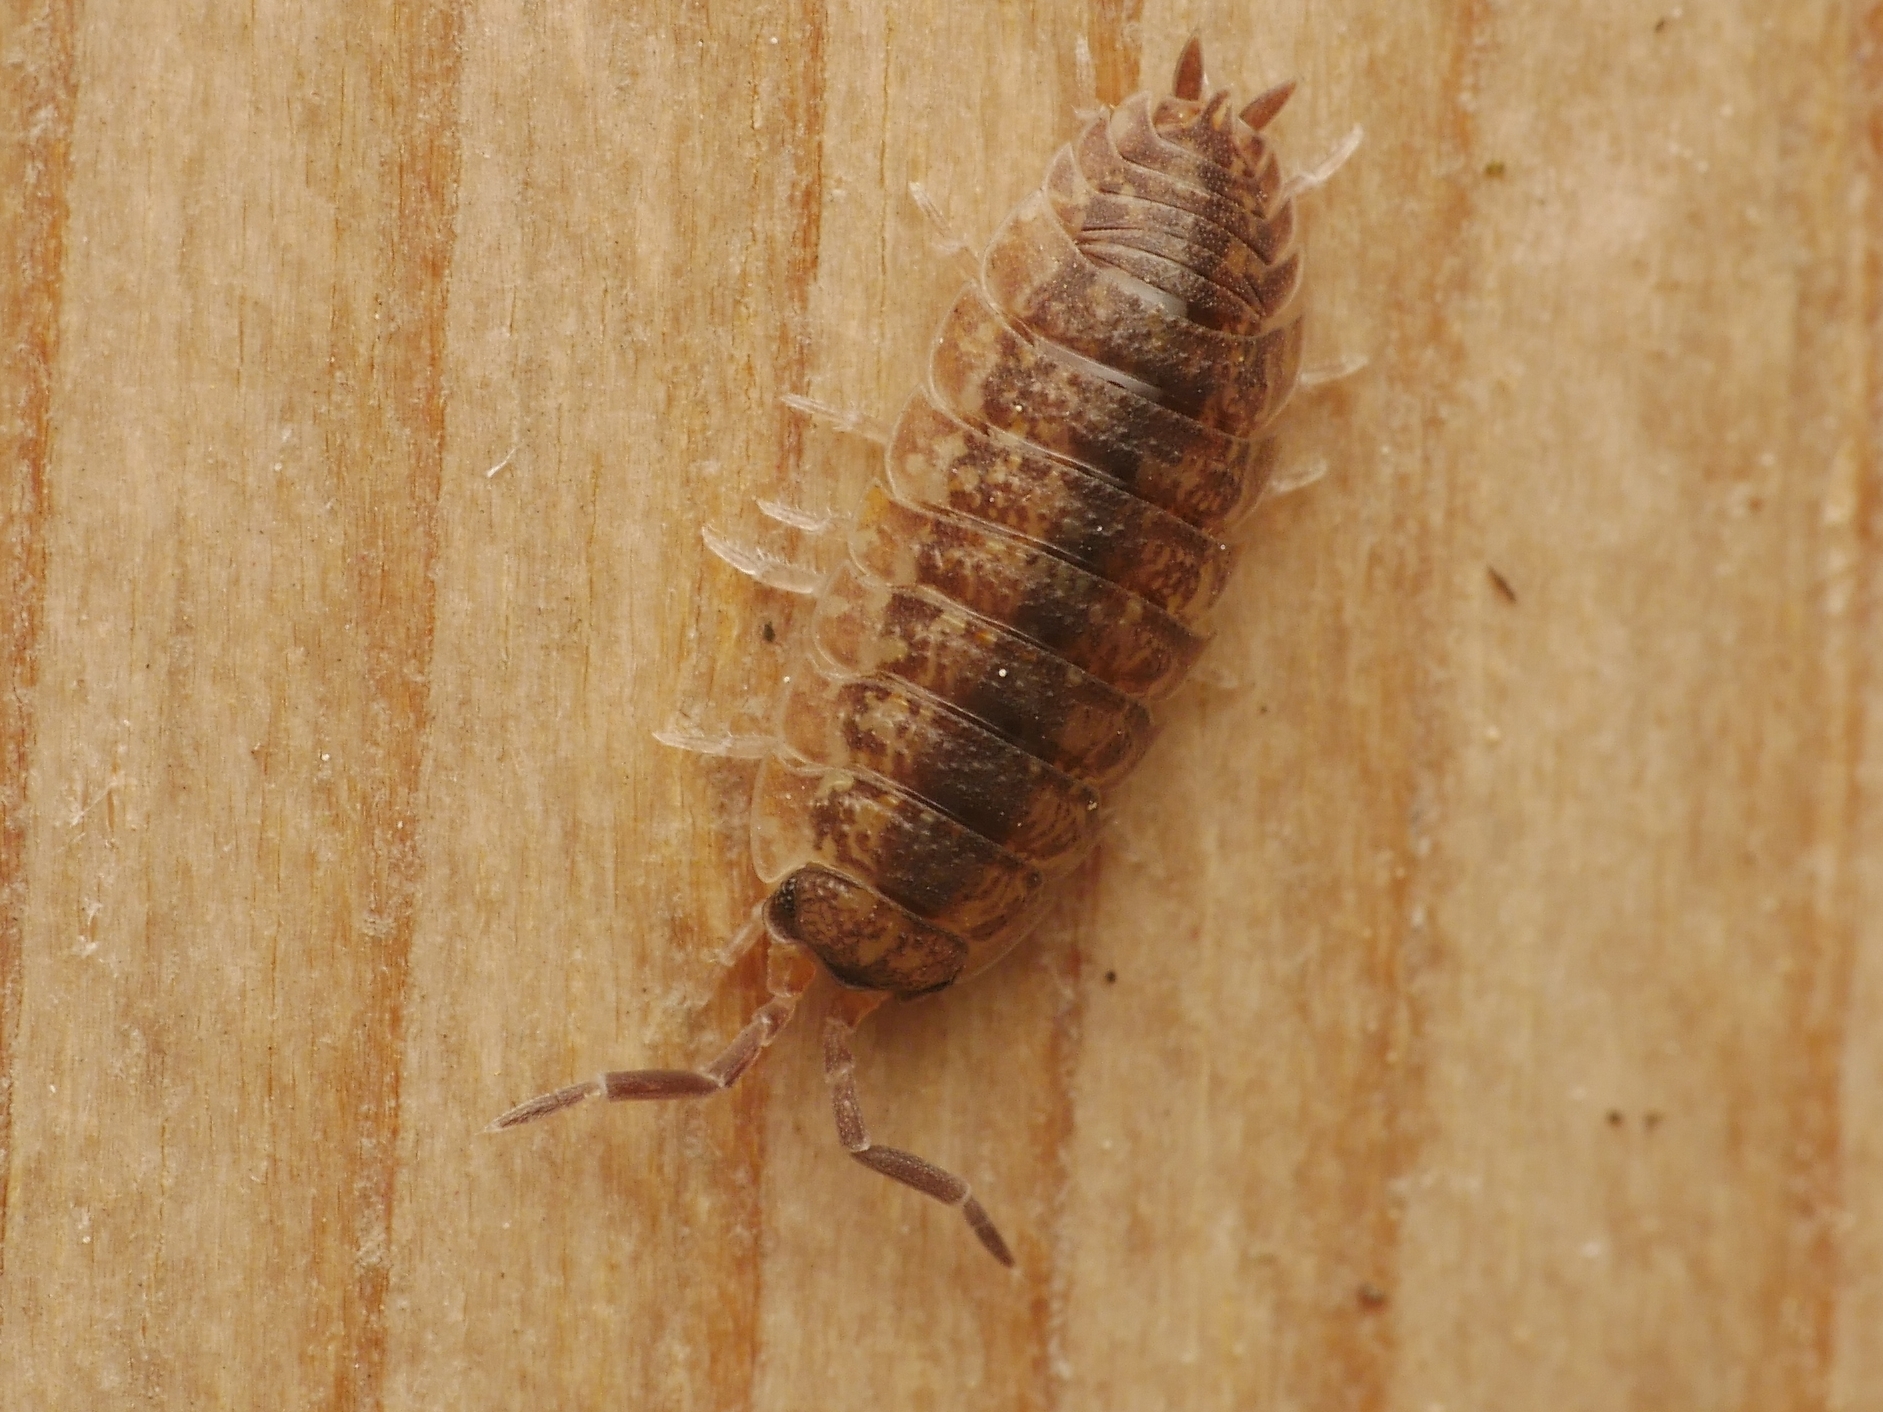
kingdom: Animalia
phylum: Arthropoda
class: Malacostraca
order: Isopoda
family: Porcellionidae
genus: Porcellio
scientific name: Porcellio scaber
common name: Common rough woodlouse
